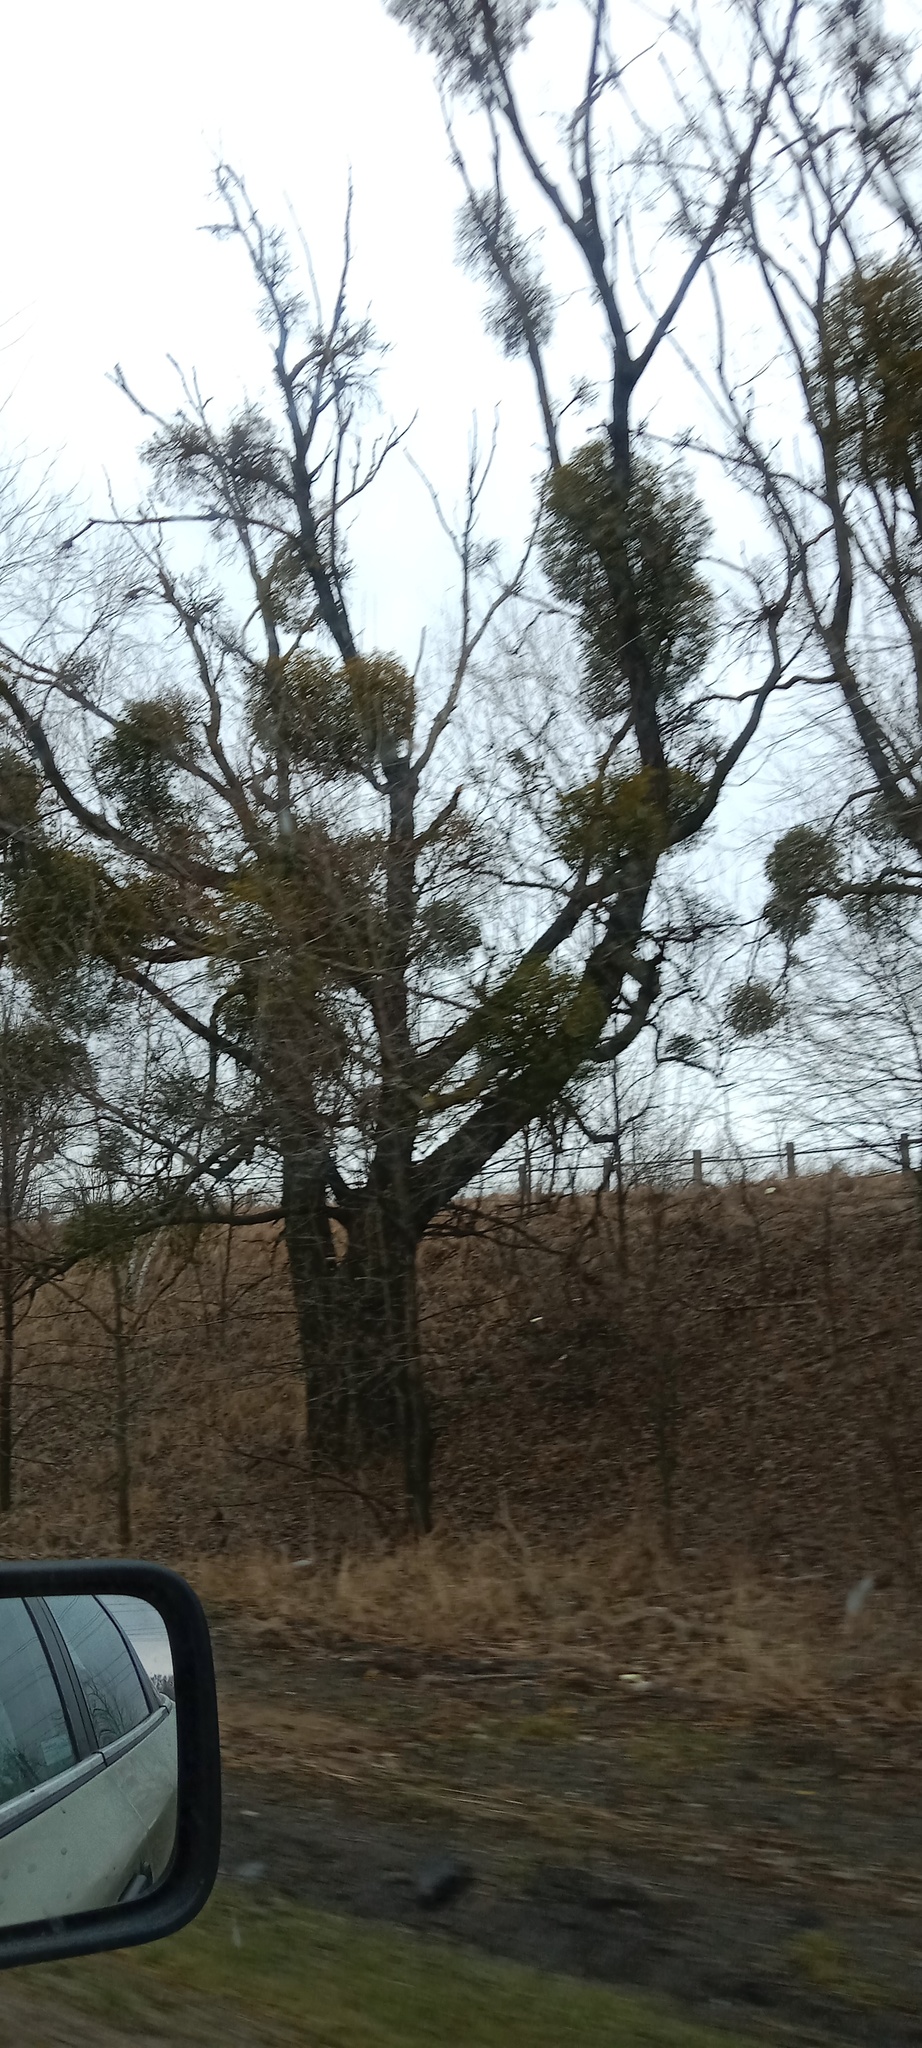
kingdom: Plantae
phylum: Tracheophyta
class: Magnoliopsida
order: Santalales
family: Viscaceae
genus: Viscum
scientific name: Viscum album
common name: Mistletoe
